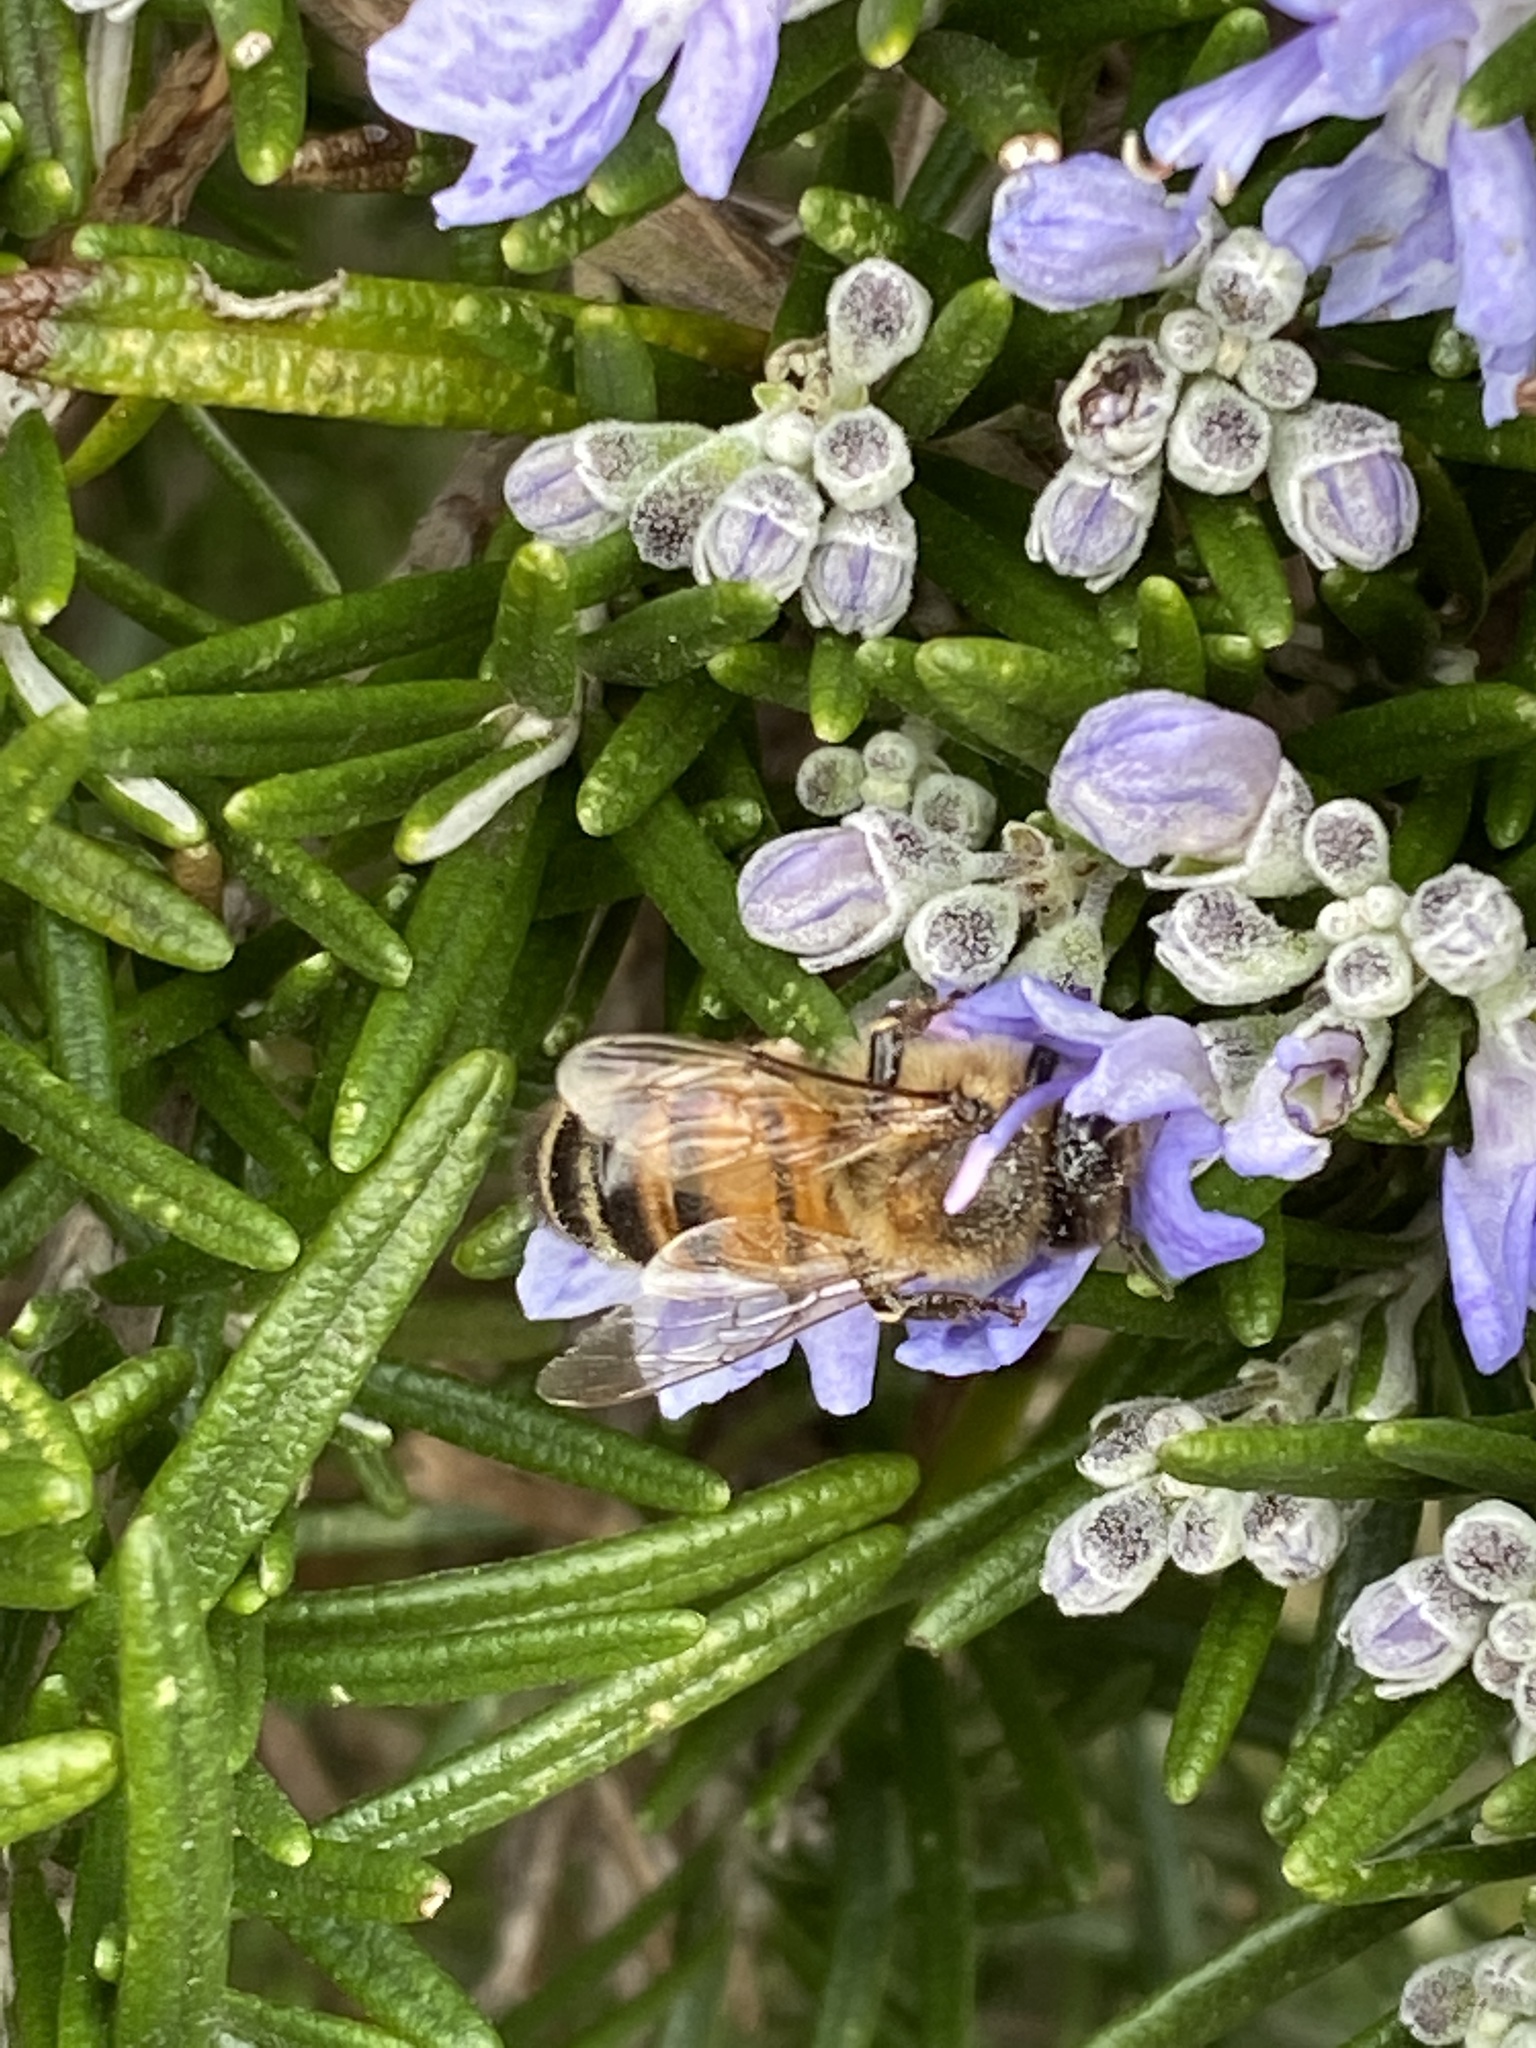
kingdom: Animalia
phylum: Arthropoda
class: Insecta
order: Hymenoptera
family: Apidae
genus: Apis
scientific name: Apis mellifera
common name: Honey bee
